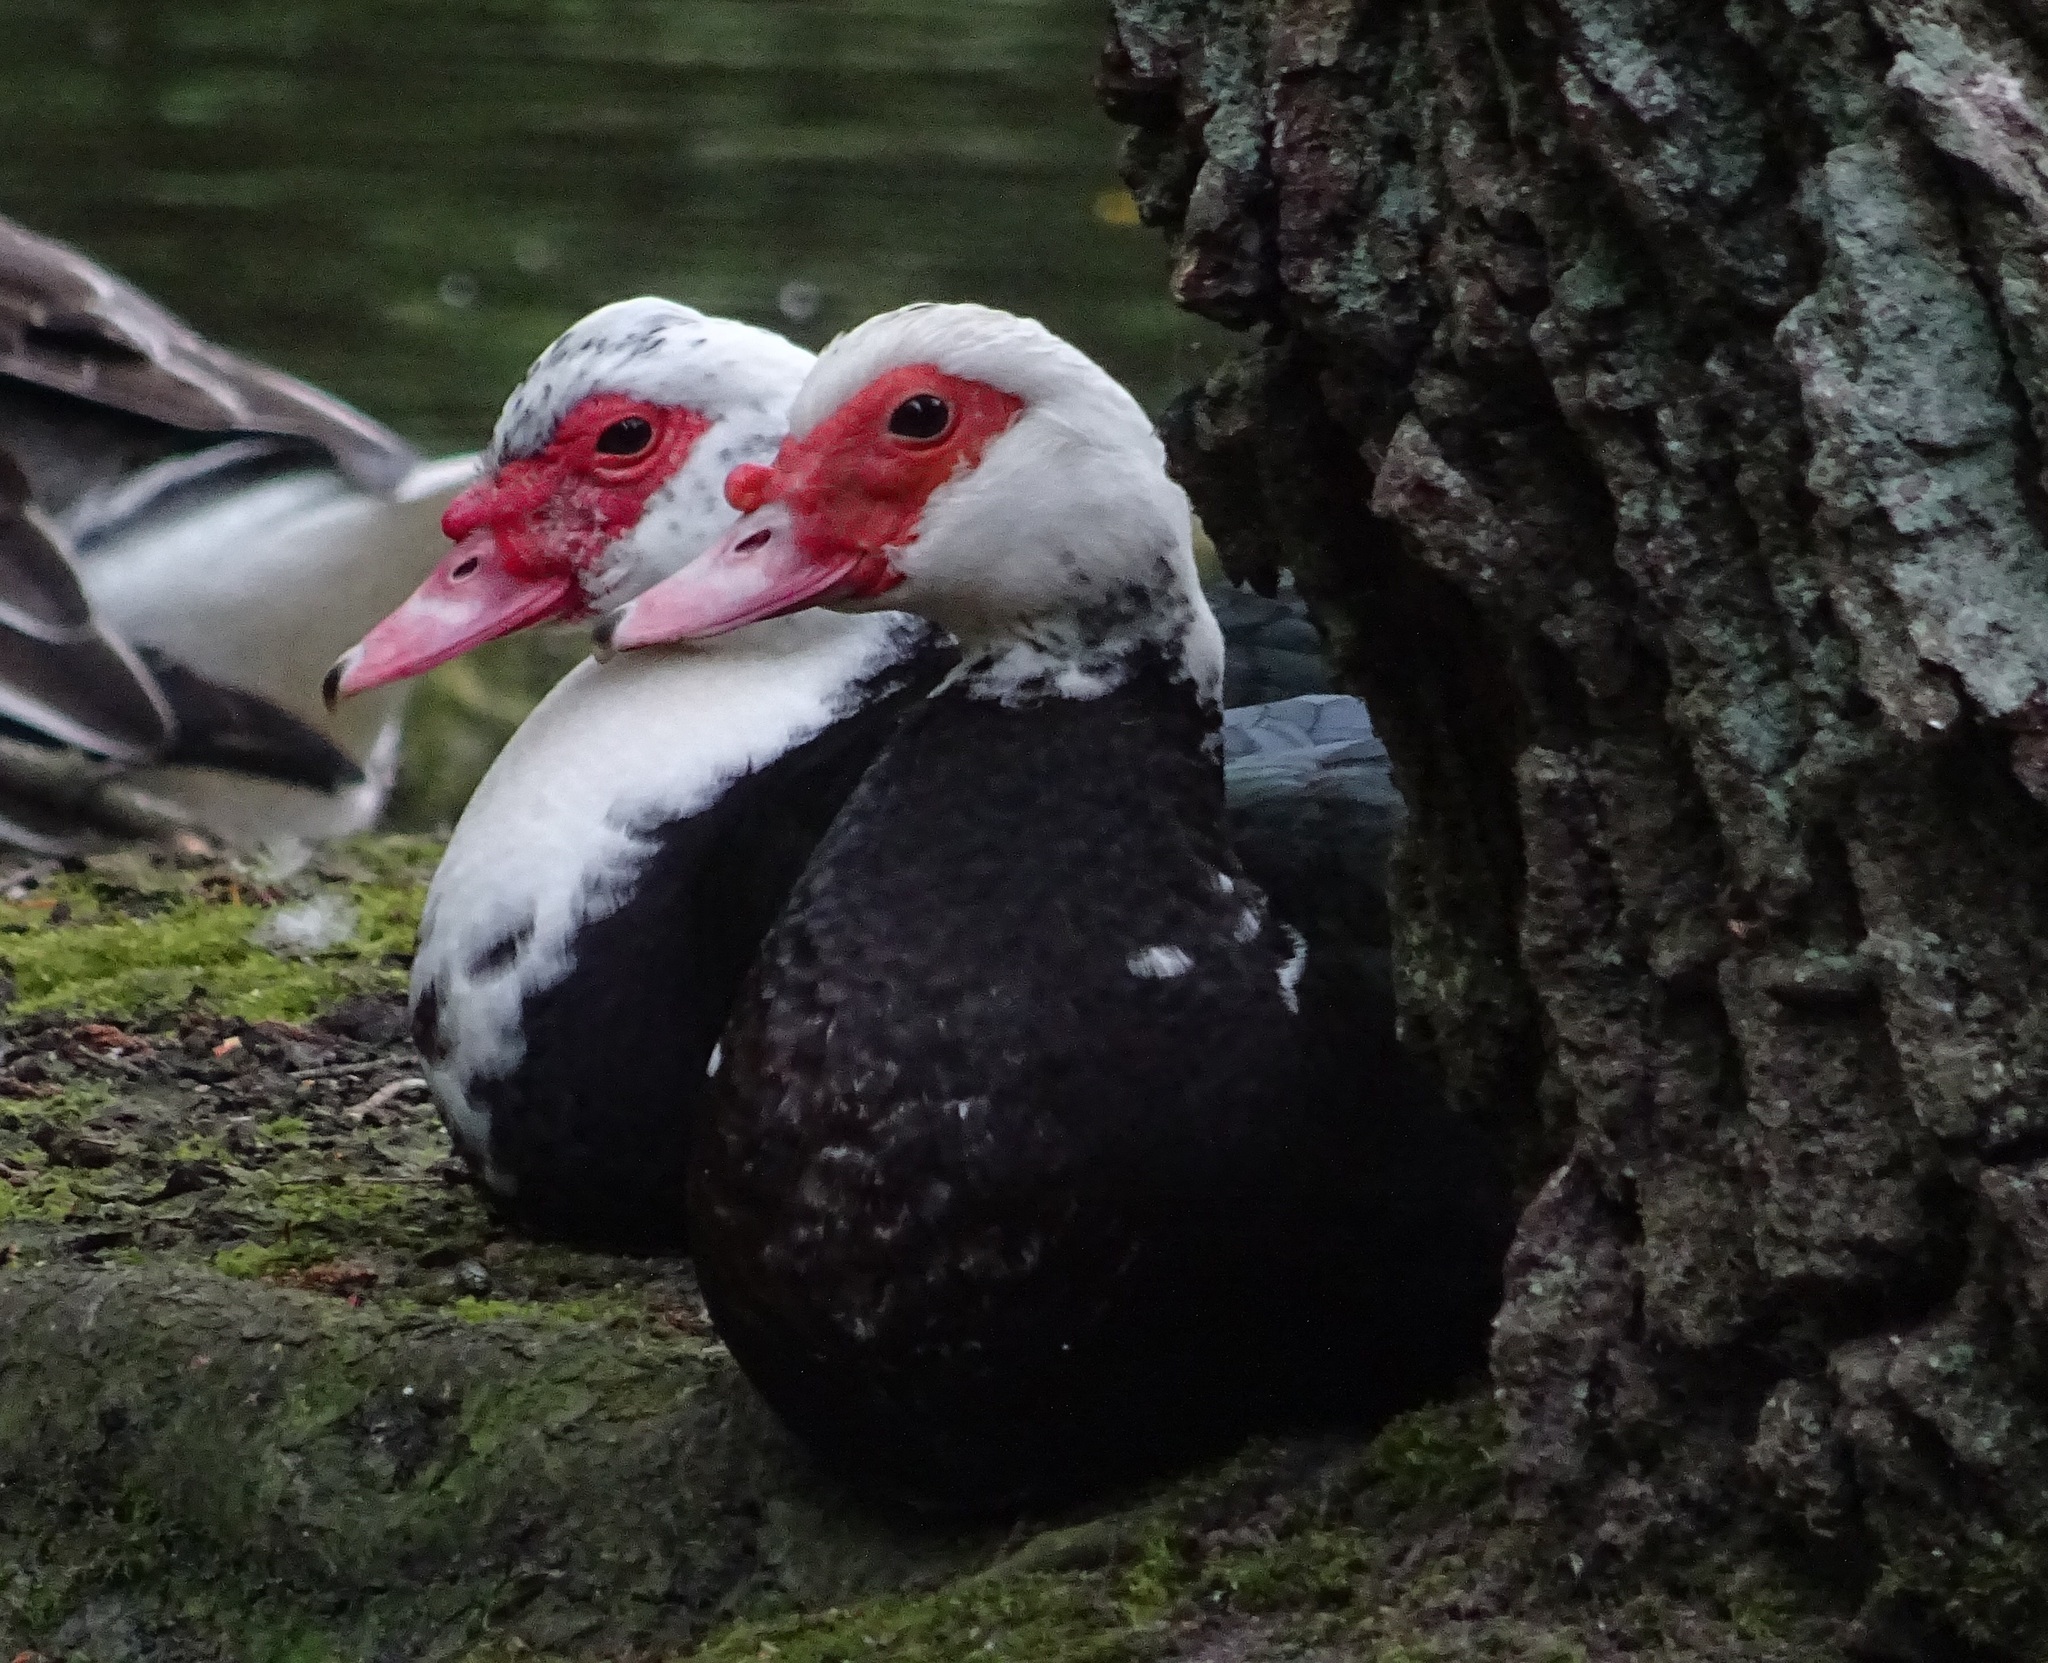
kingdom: Animalia
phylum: Chordata
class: Aves
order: Anseriformes
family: Anatidae
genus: Cairina
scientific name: Cairina moschata
